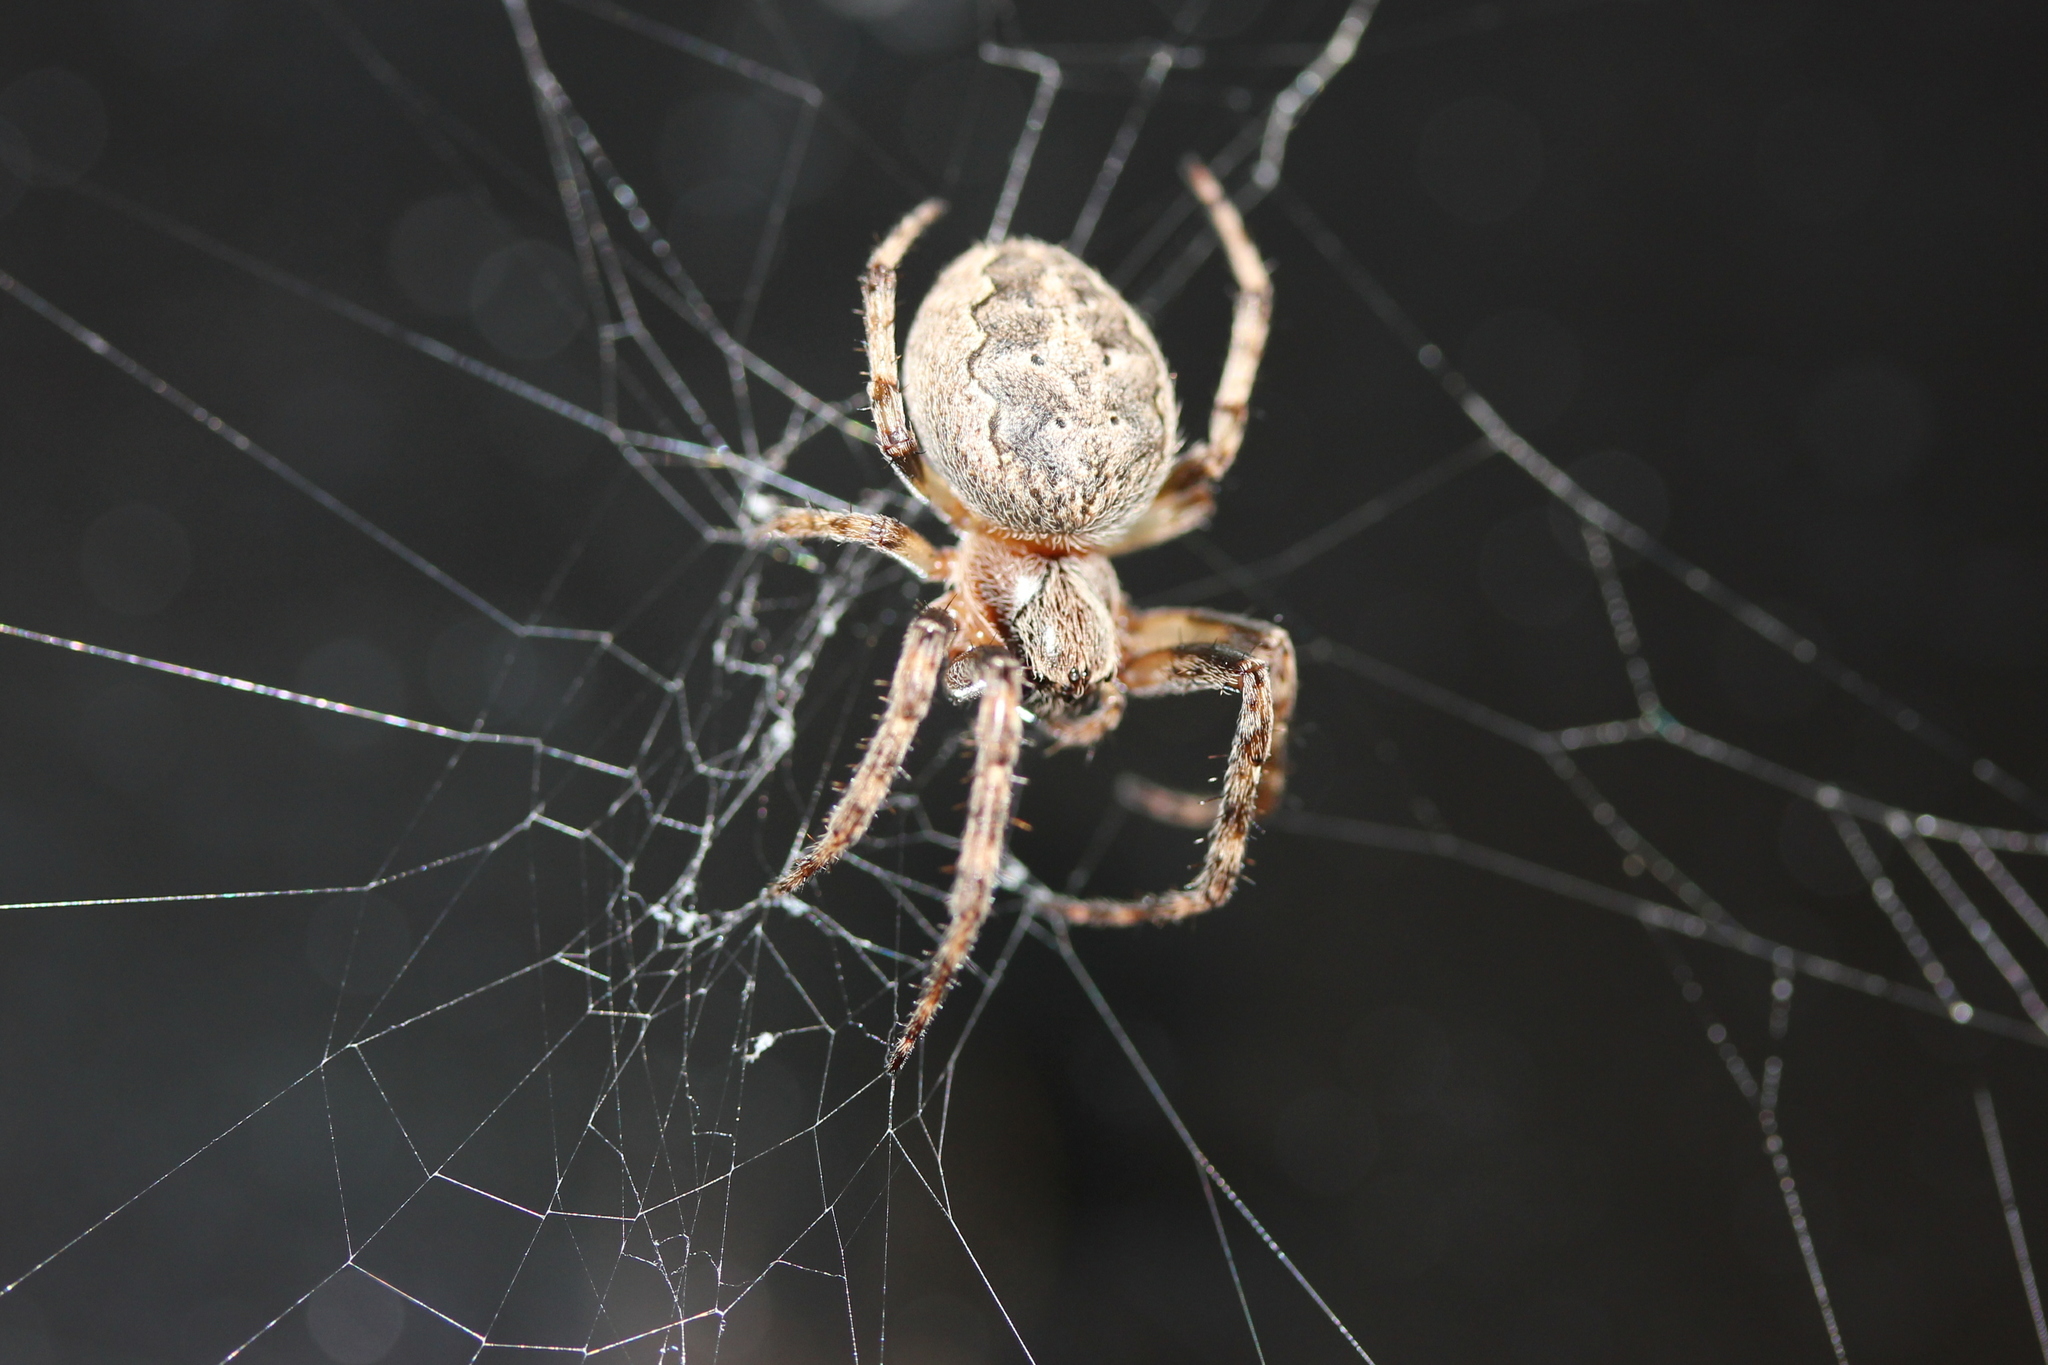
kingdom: Animalia
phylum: Arthropoda
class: Arachnida
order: Araneae
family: Araneidae
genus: Larinioides
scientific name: Larinioides patagiatus
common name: Ornamental orbweaver
